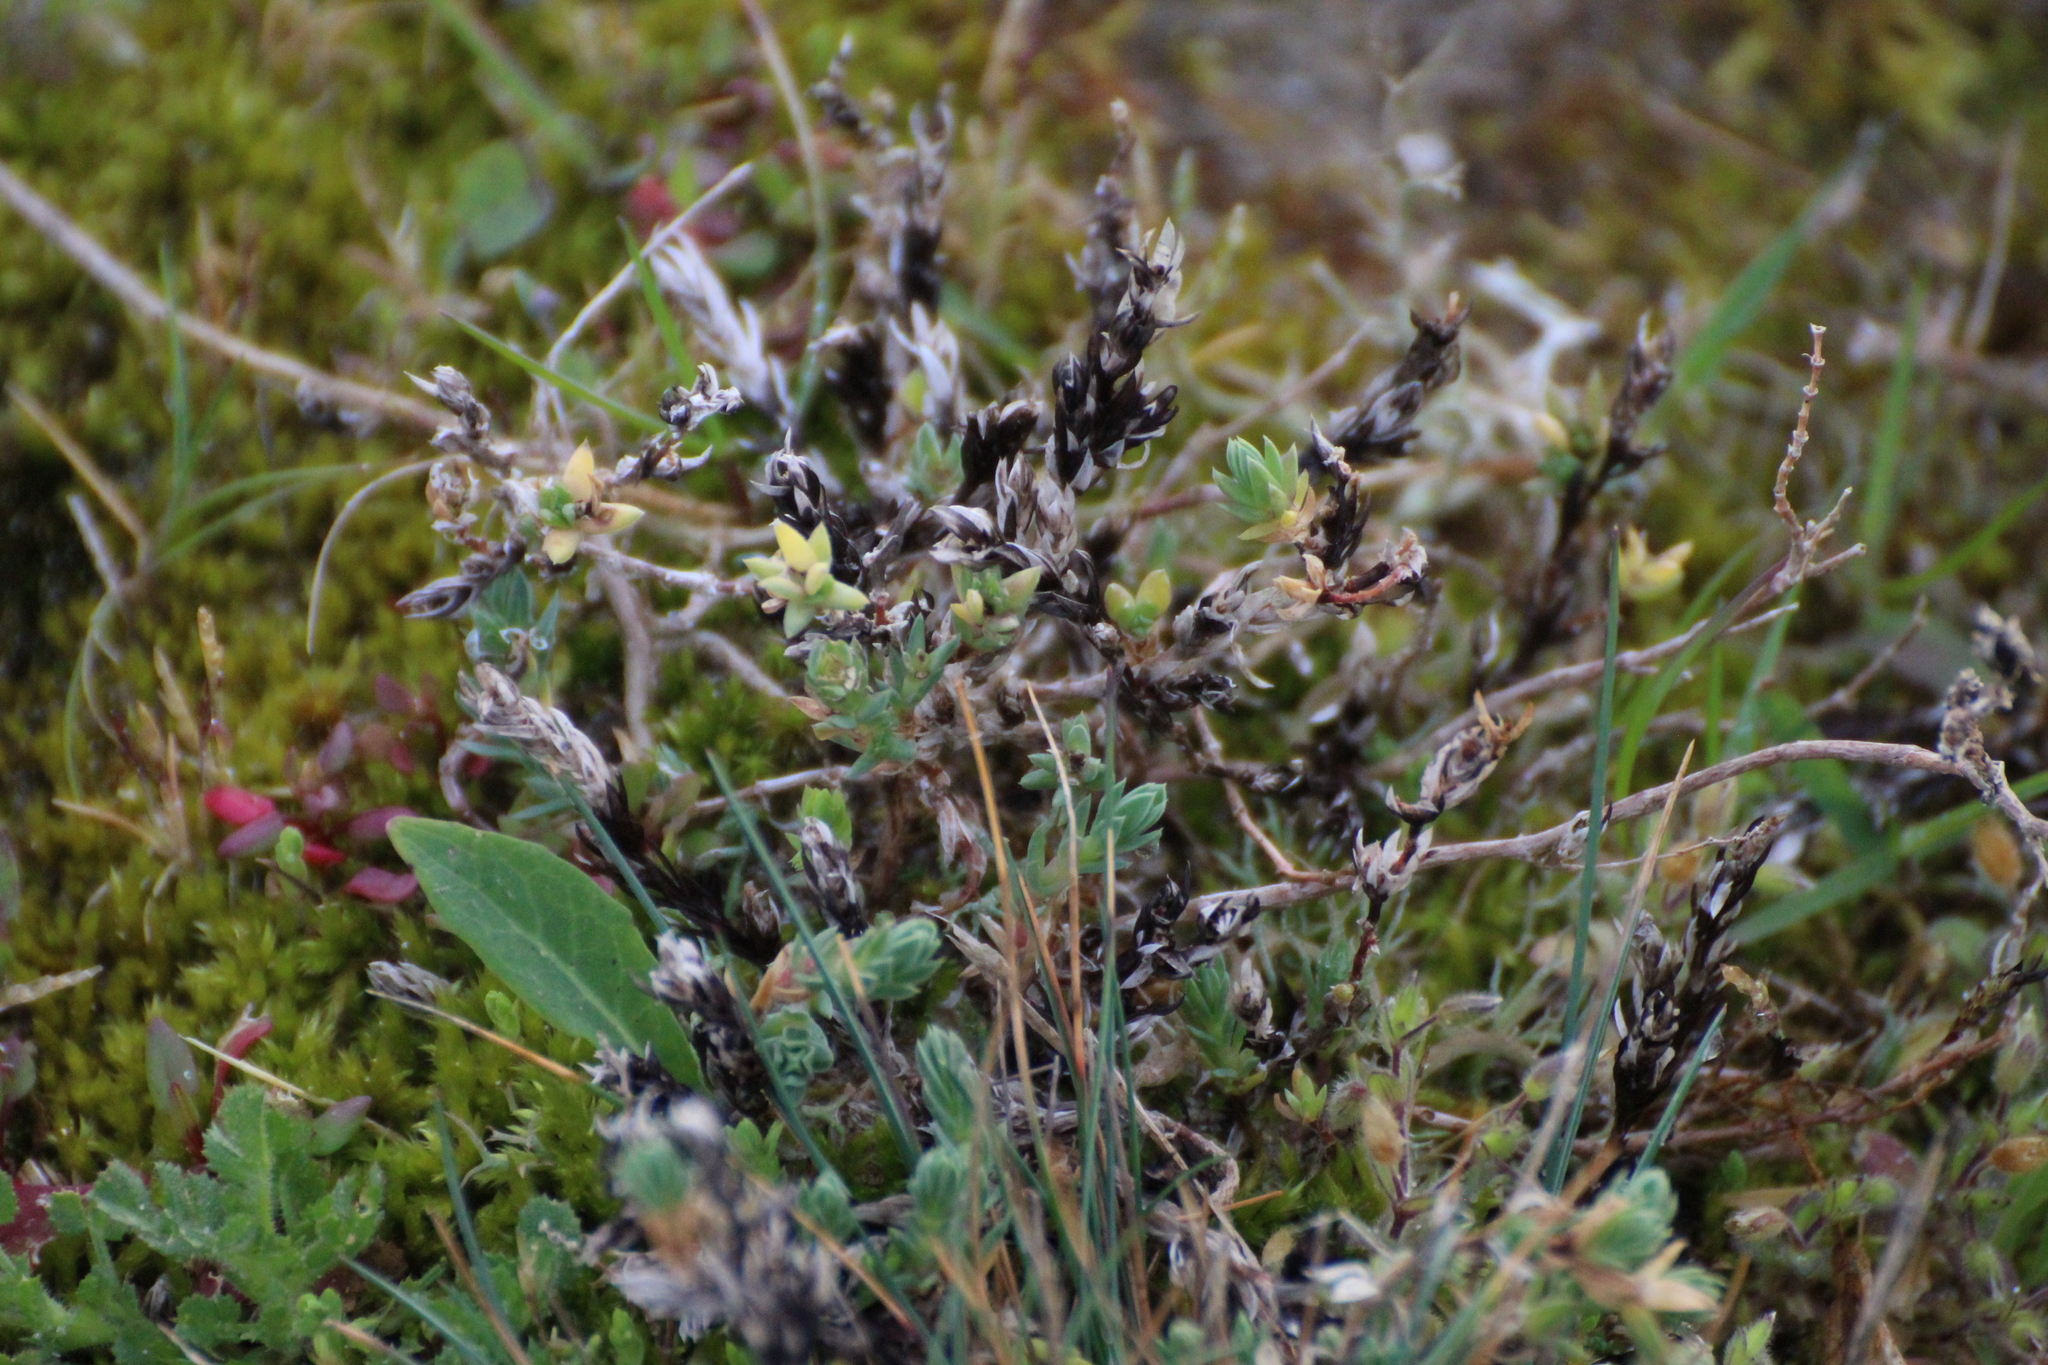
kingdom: Plantae
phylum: Tracheophyta
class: Magnoliopsida
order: Gentianales
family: Rubiaceae
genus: Crucianella
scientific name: Crucianella maritima
